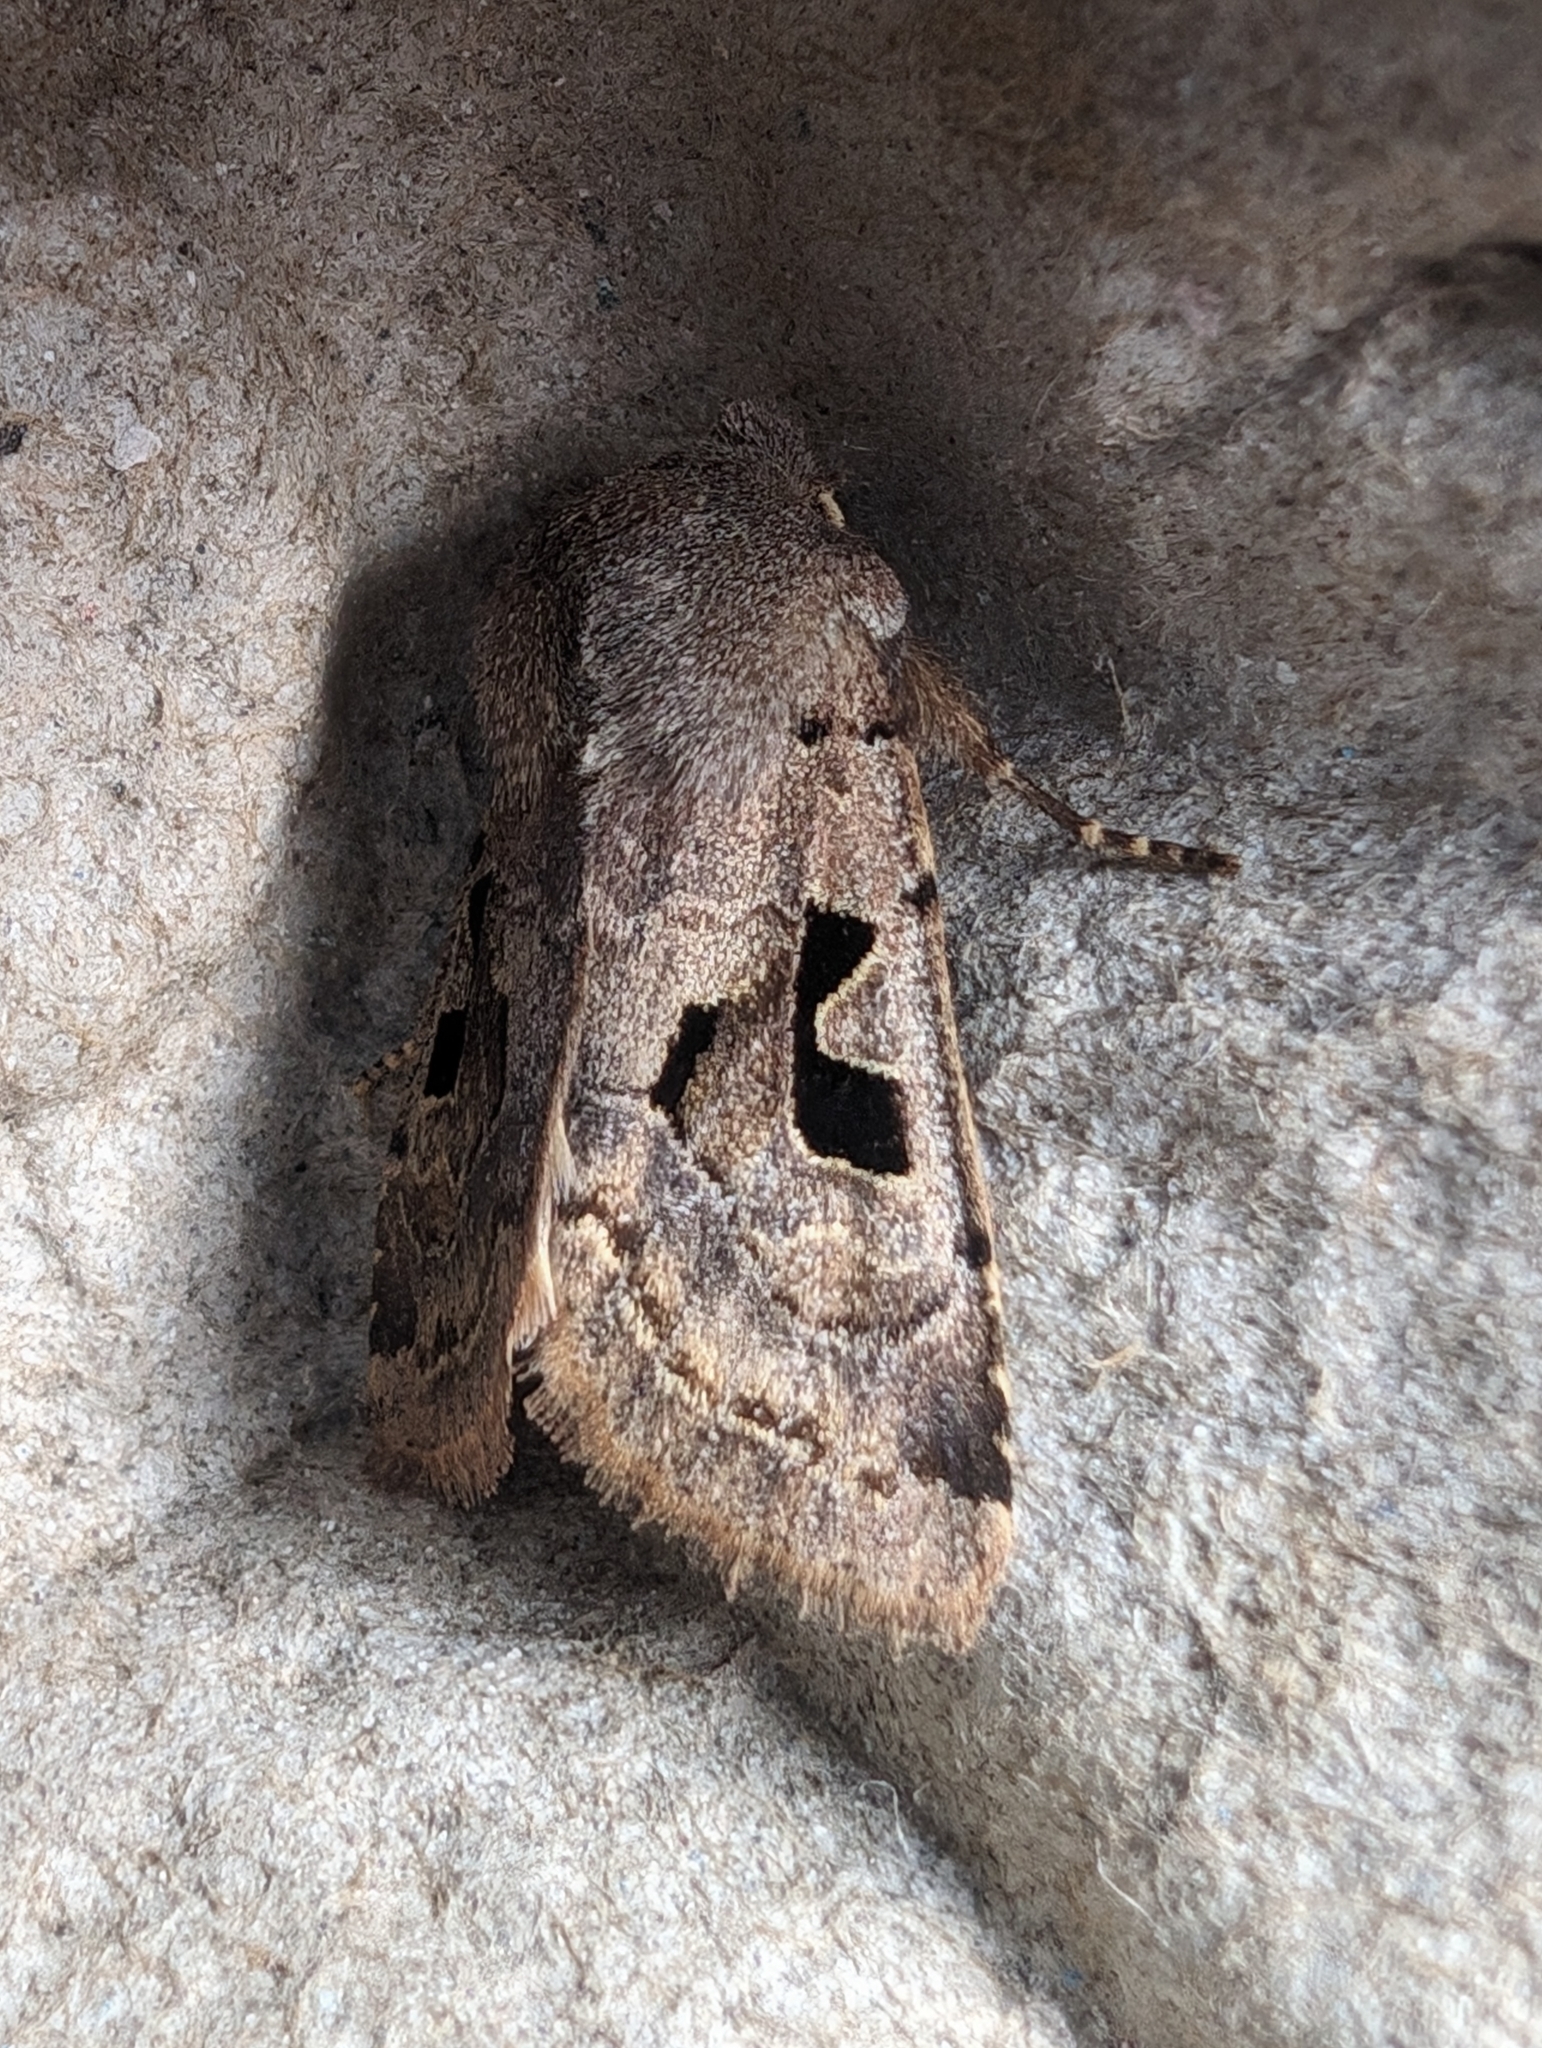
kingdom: Animalia
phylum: Arthropoda
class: Insecta
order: Lepidoptera
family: Noctuidae
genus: Orthosia
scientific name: Orthosia gothica
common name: Hebrew character
